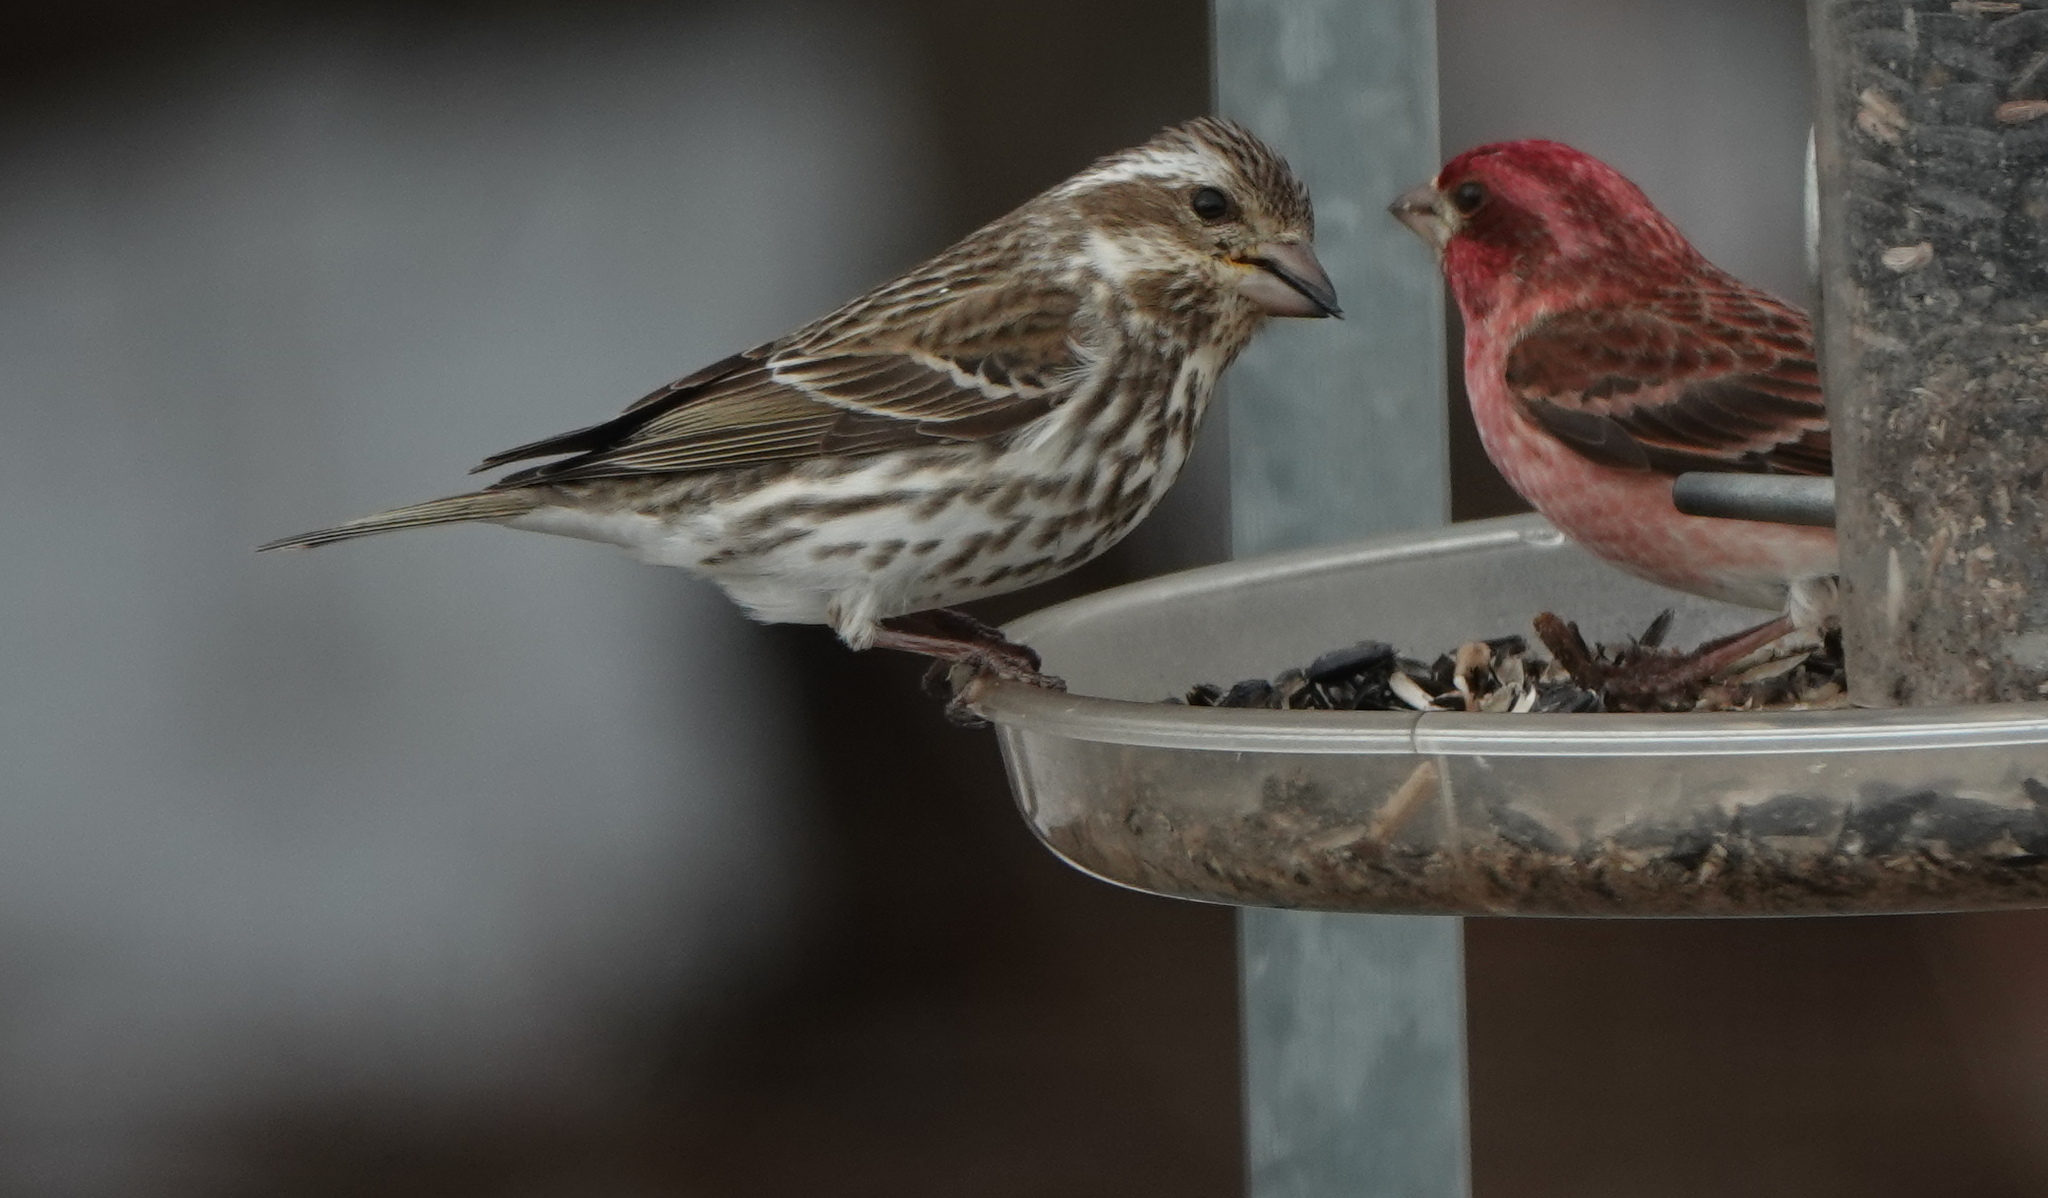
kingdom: Animalia
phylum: Chordata
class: Aves
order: Passeriformes
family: Fringillidae
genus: Haemorhous
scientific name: Haemorhous purpureus
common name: Purple finch
